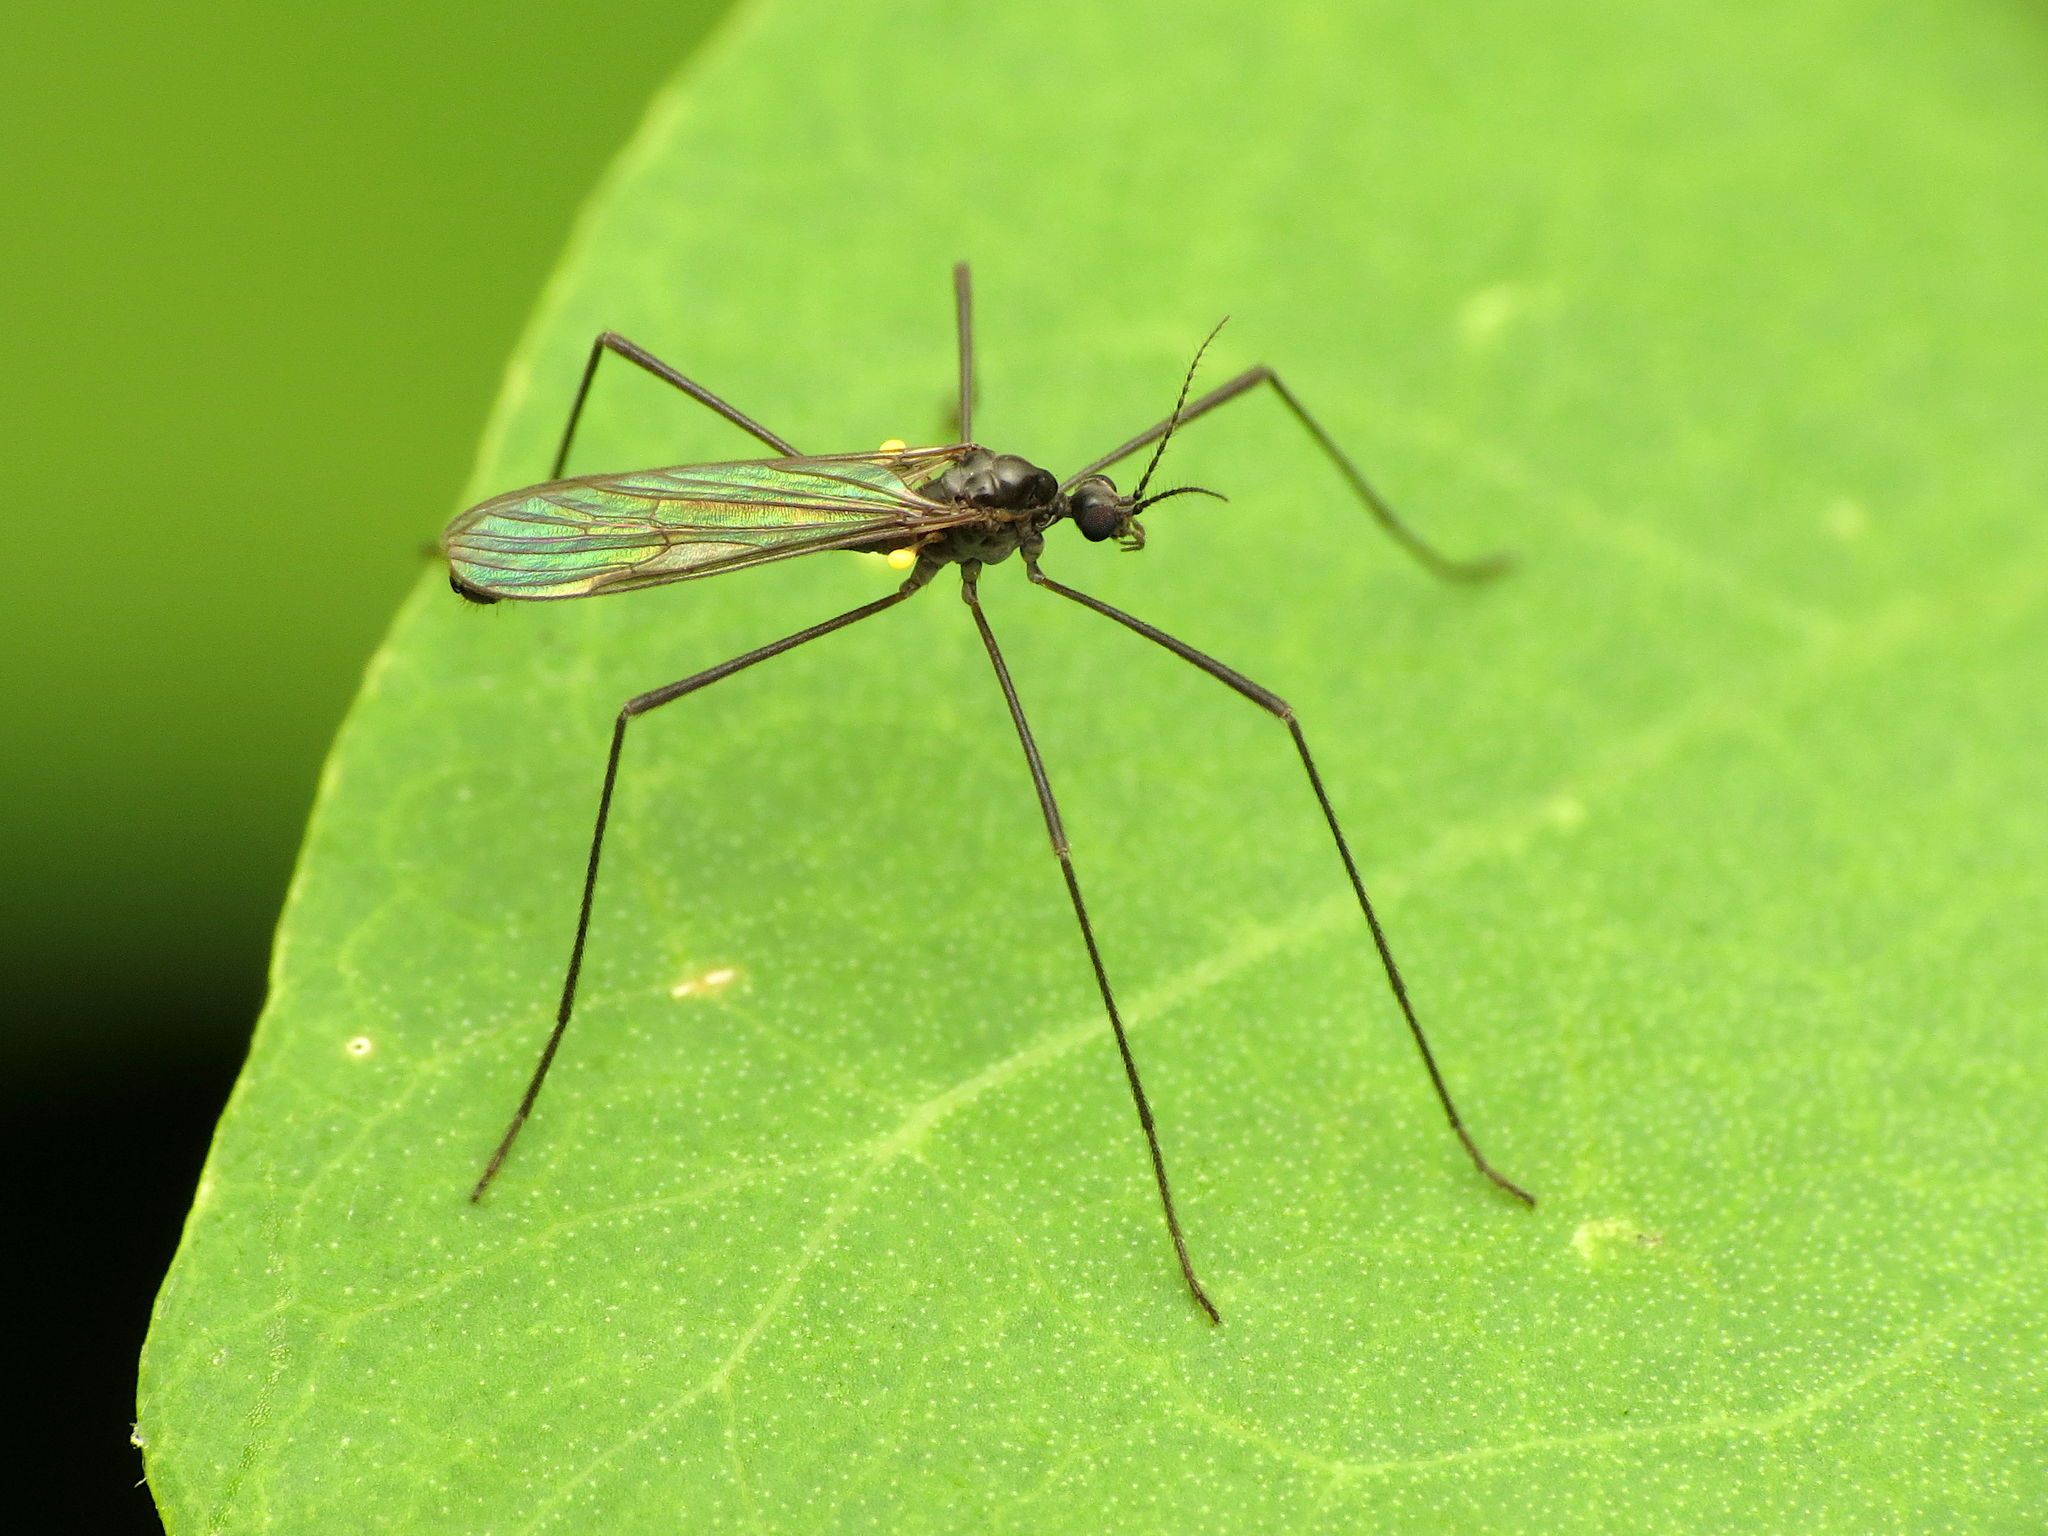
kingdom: Animalia
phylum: Arthropoda
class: Insecta
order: Diptera
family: Limoniidae
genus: Gnophomyia
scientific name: Gnophomyia tristissima
